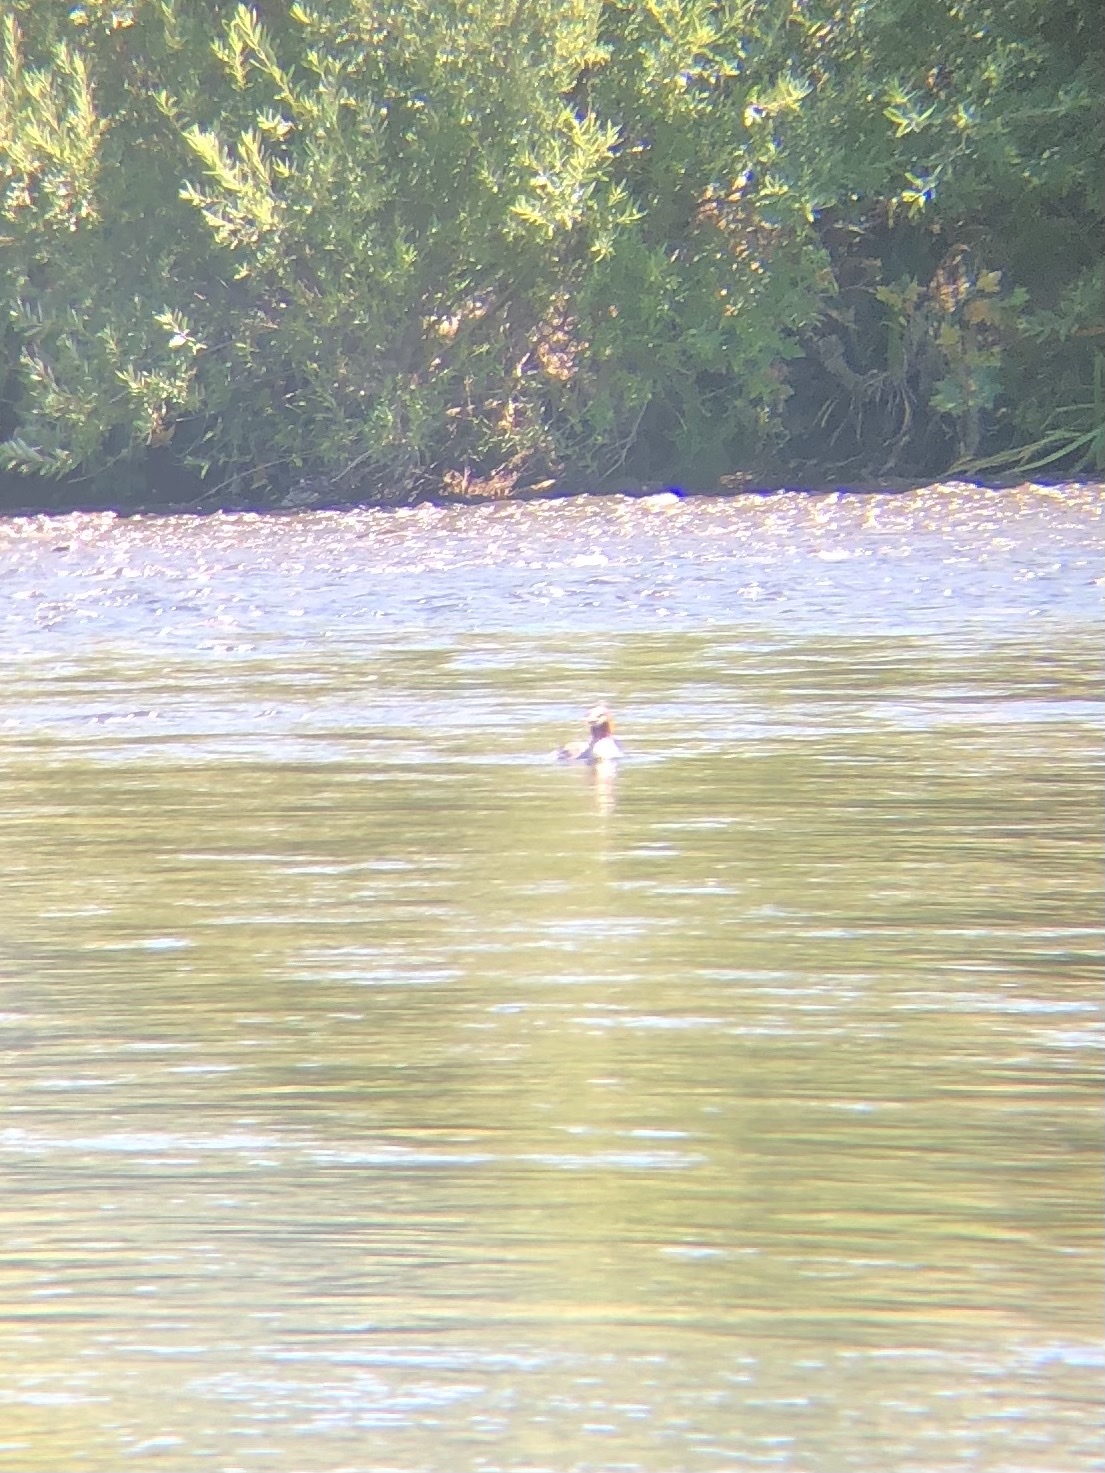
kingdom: Animalia
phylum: Chordata
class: Aves
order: Anseriformes
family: Anatidae
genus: Mergus
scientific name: Mergus merganser
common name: Common merganser
